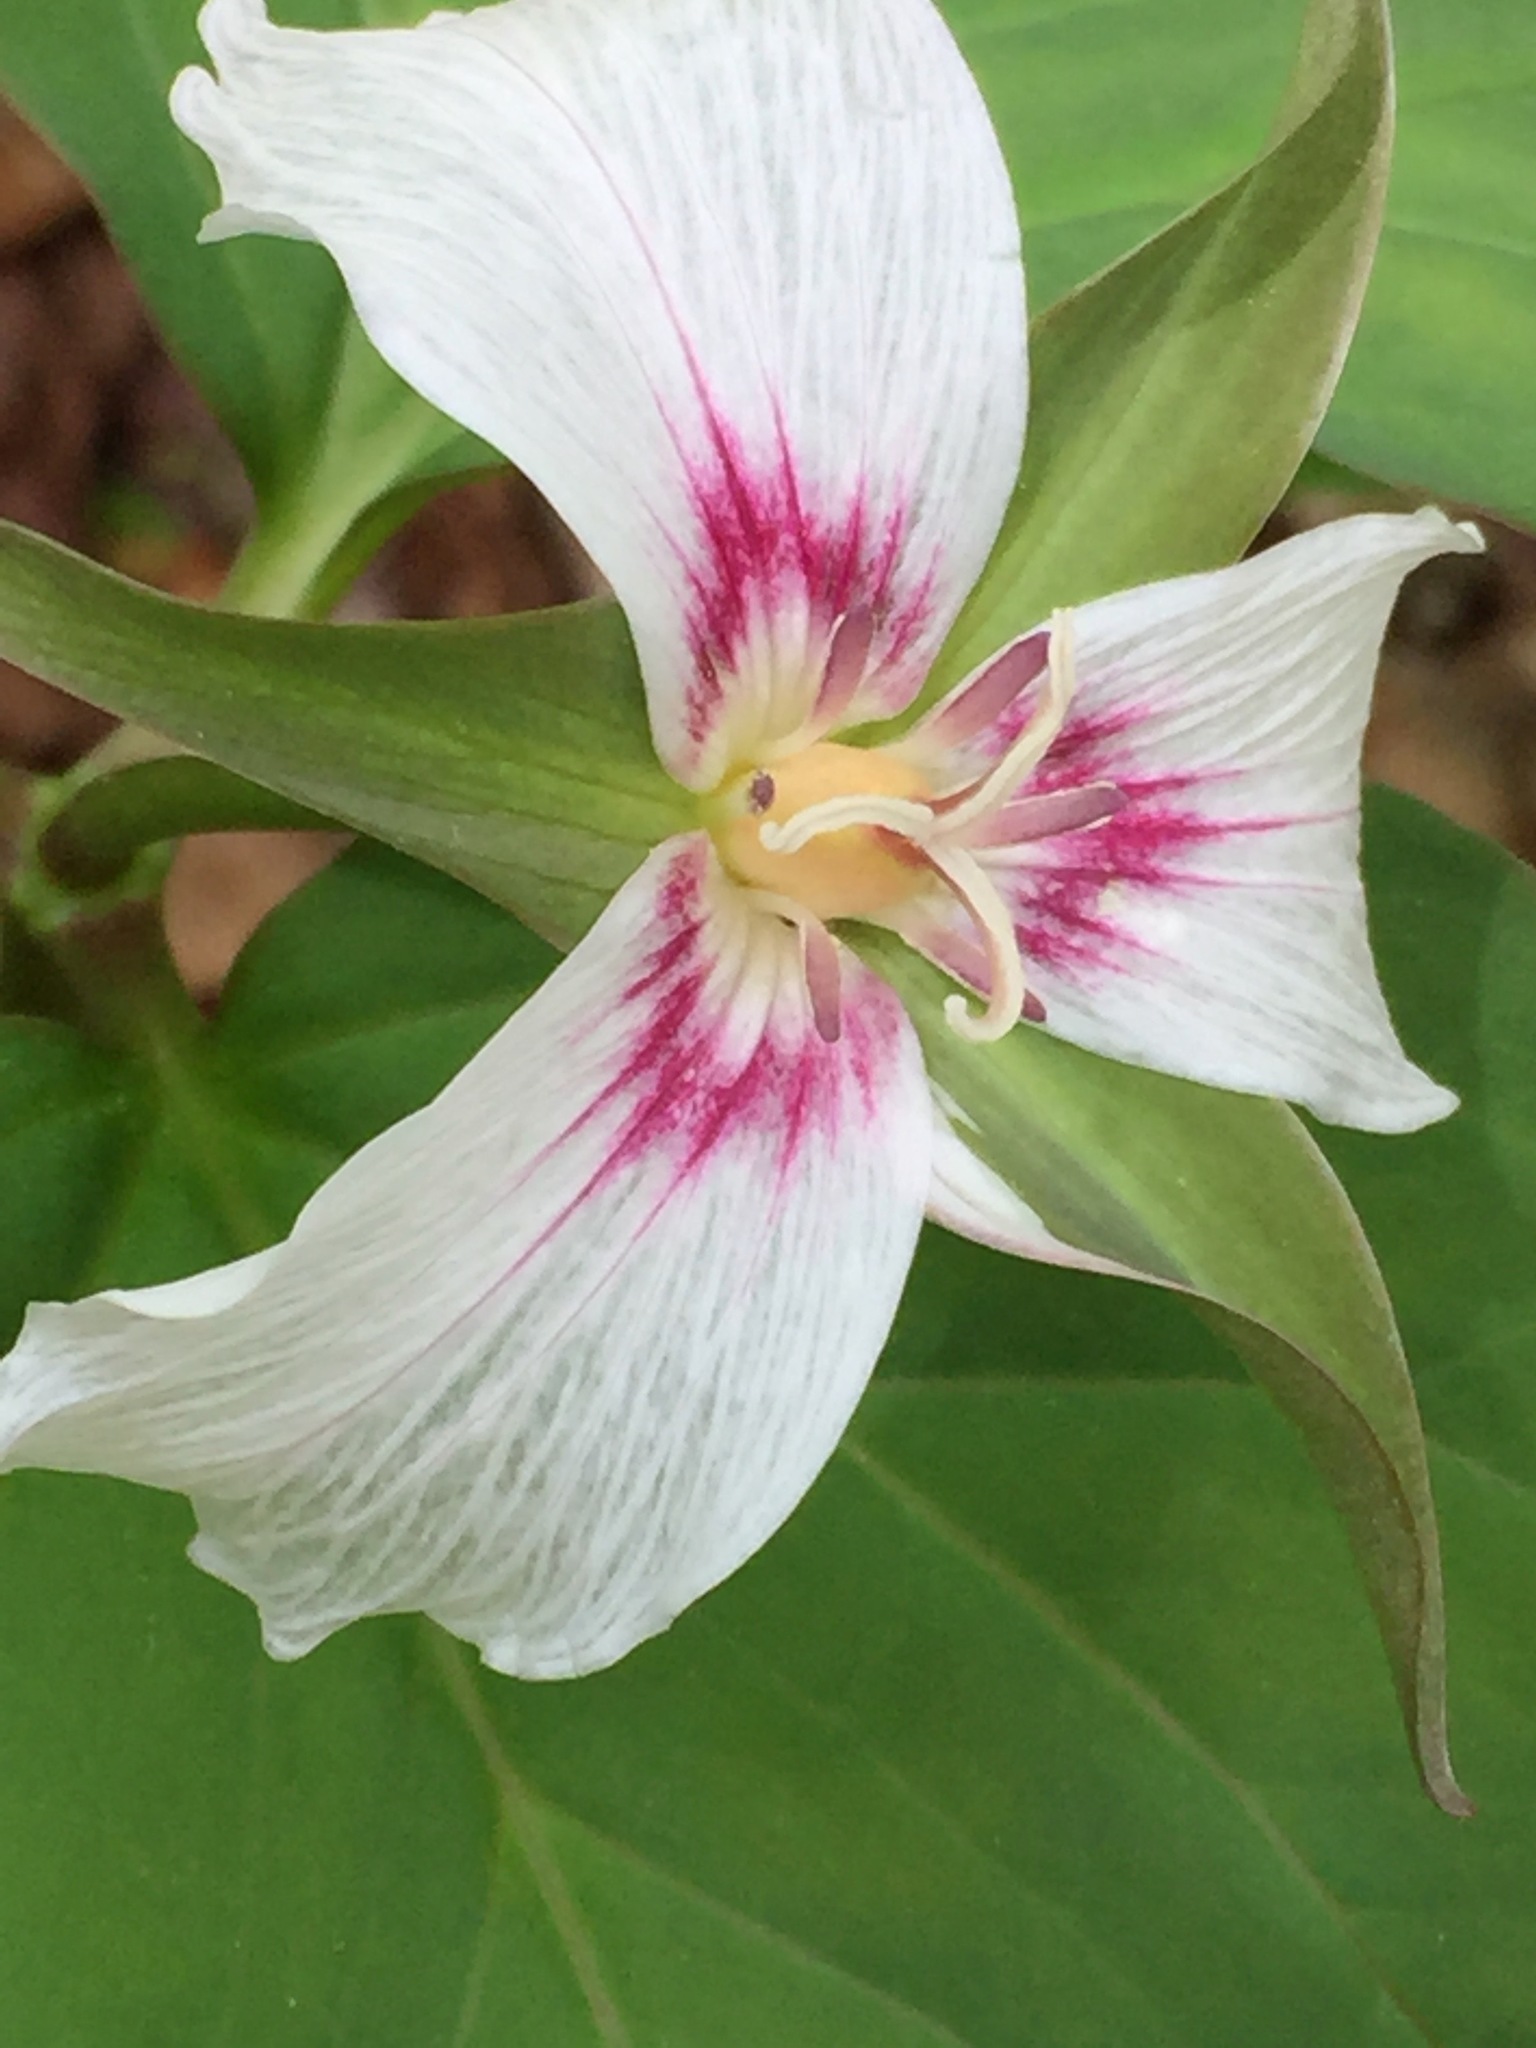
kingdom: Plantae
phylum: Tracheophyta
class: Liliopsida
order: Liliales
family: Melanthiaceae
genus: Trillium
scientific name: Trillium undulatum
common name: Paint trillium
